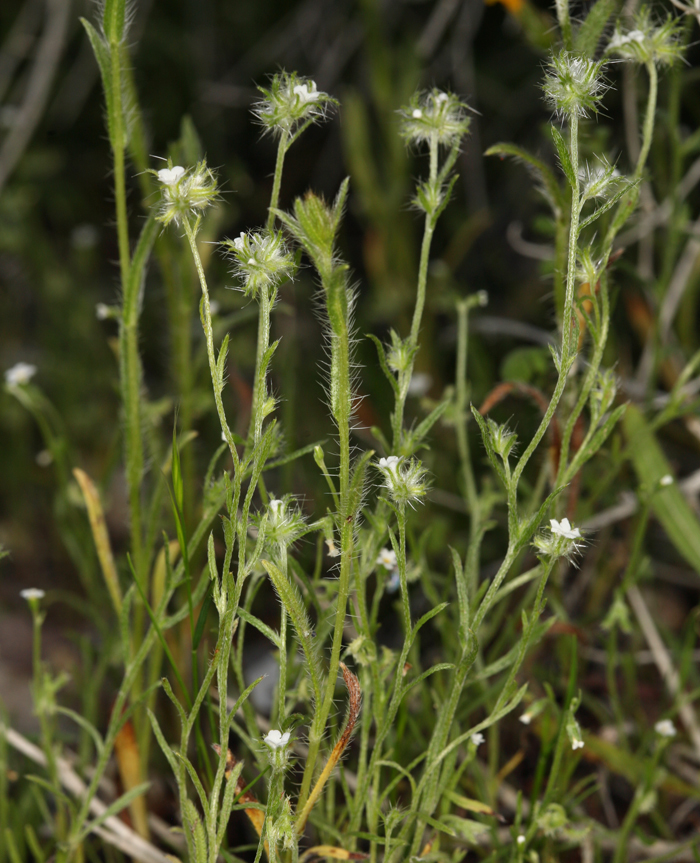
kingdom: Plantae
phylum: Tracheophyta
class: Magnoliopsida
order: Boraginales
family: Boraginaceae
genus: Cryptantha
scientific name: Cryptantha nevadensis
